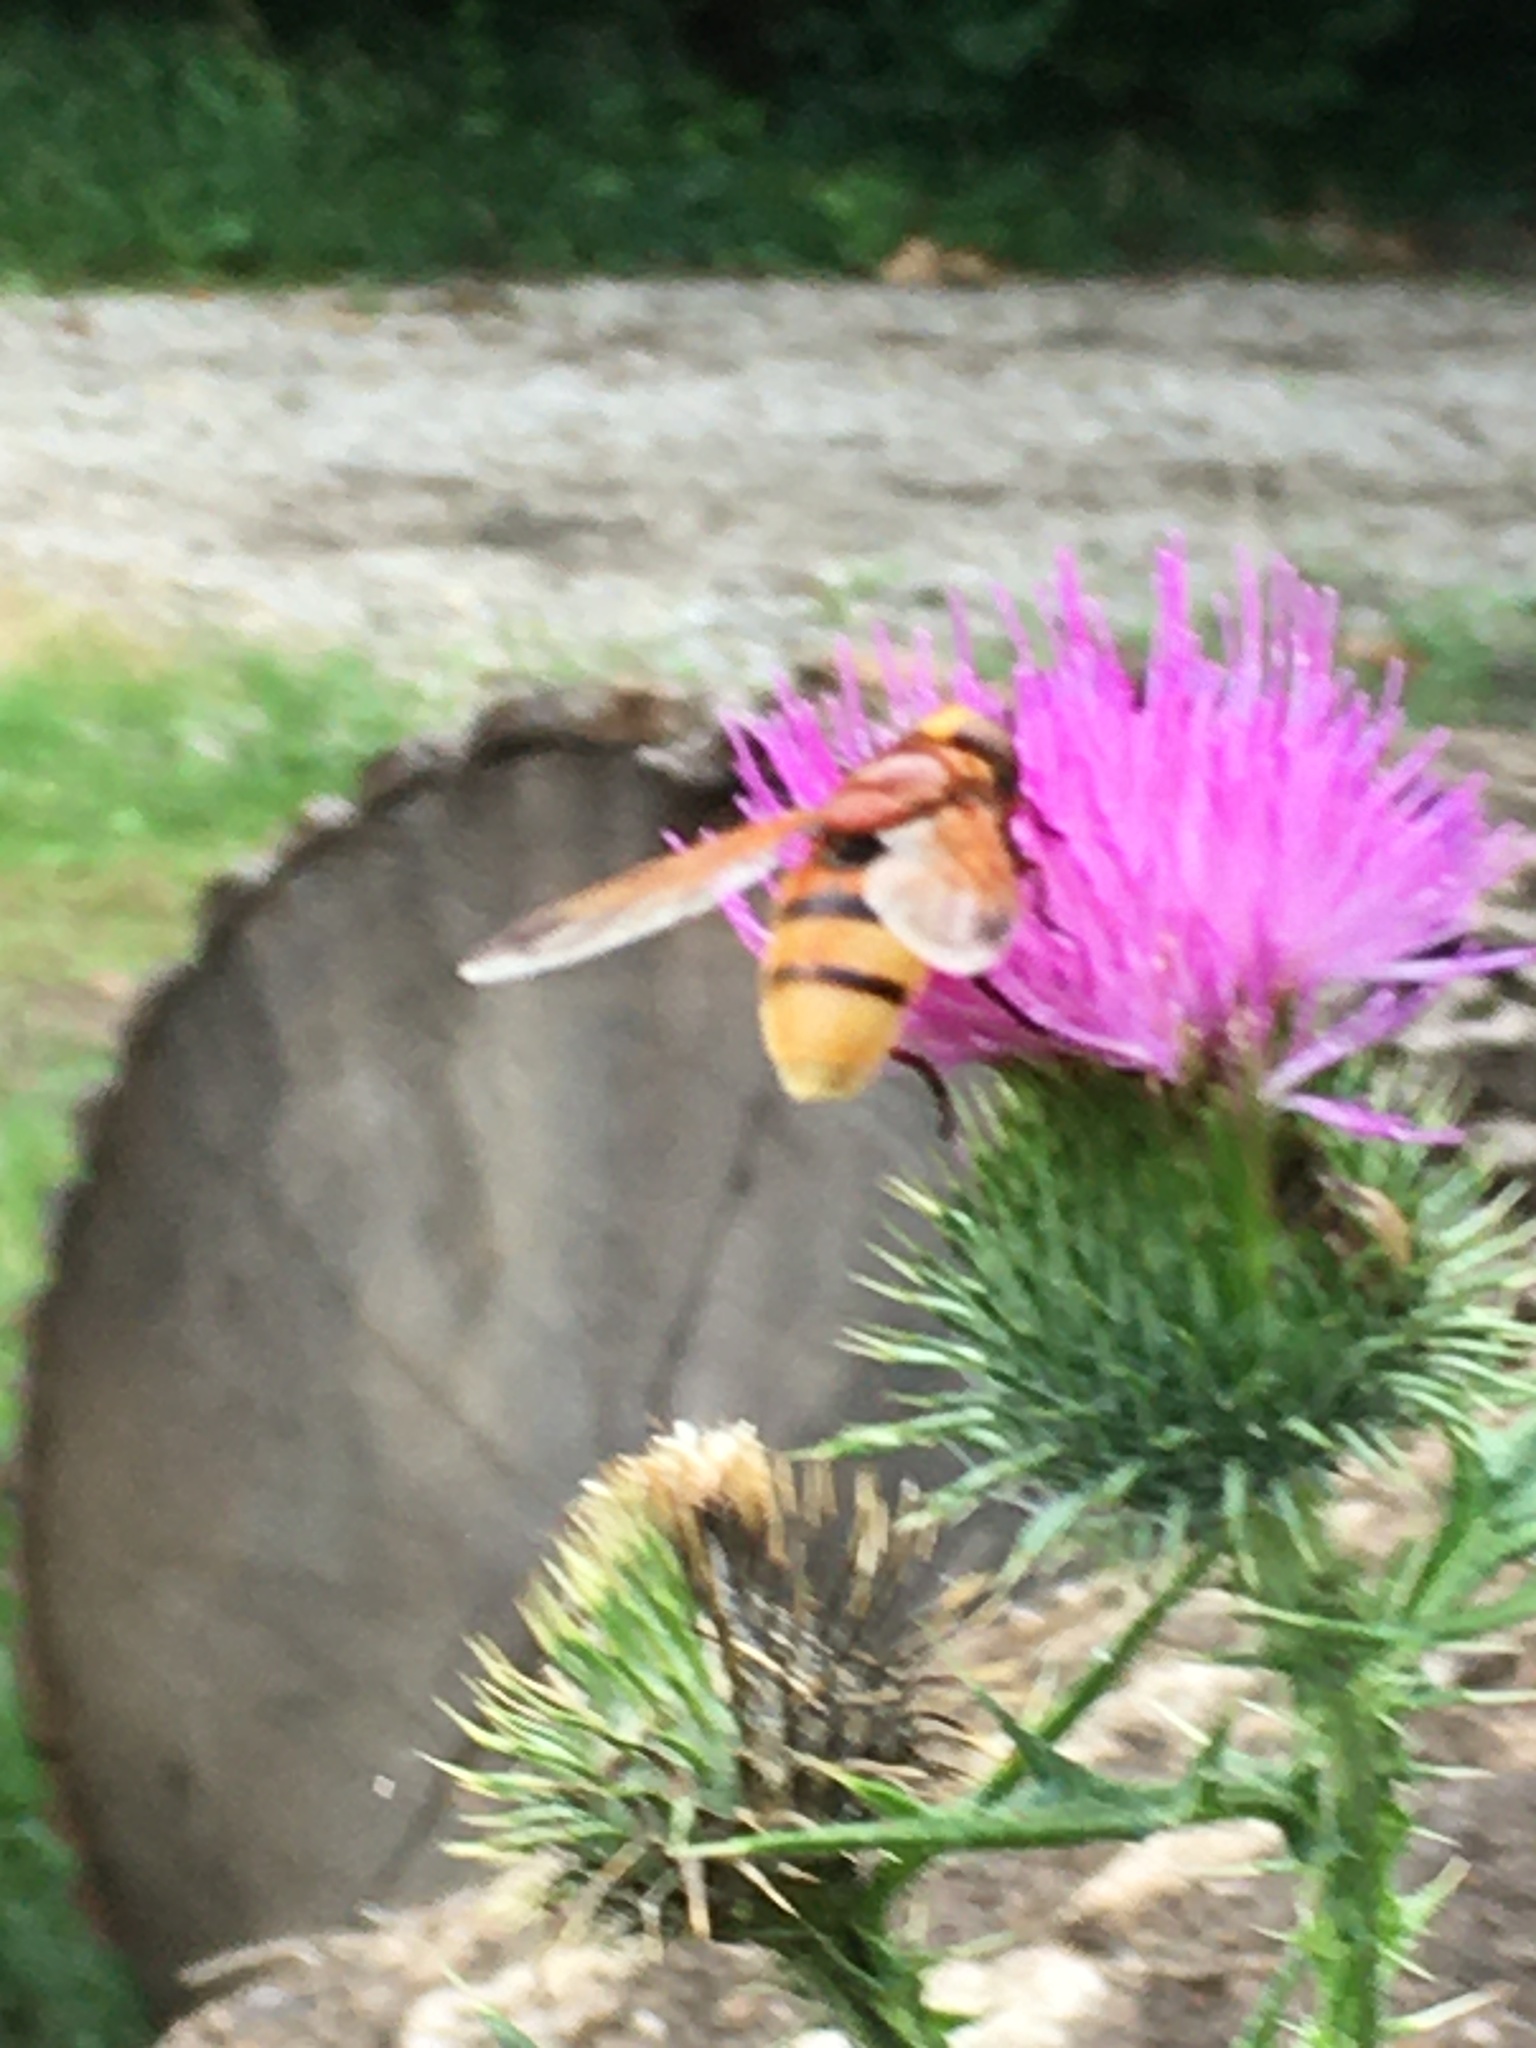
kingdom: Animalia
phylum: Arthropoda
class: Insecta
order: Diptera
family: Syrphidae
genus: Volucella
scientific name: Volucella zonaria
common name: Hornet hoverfly
